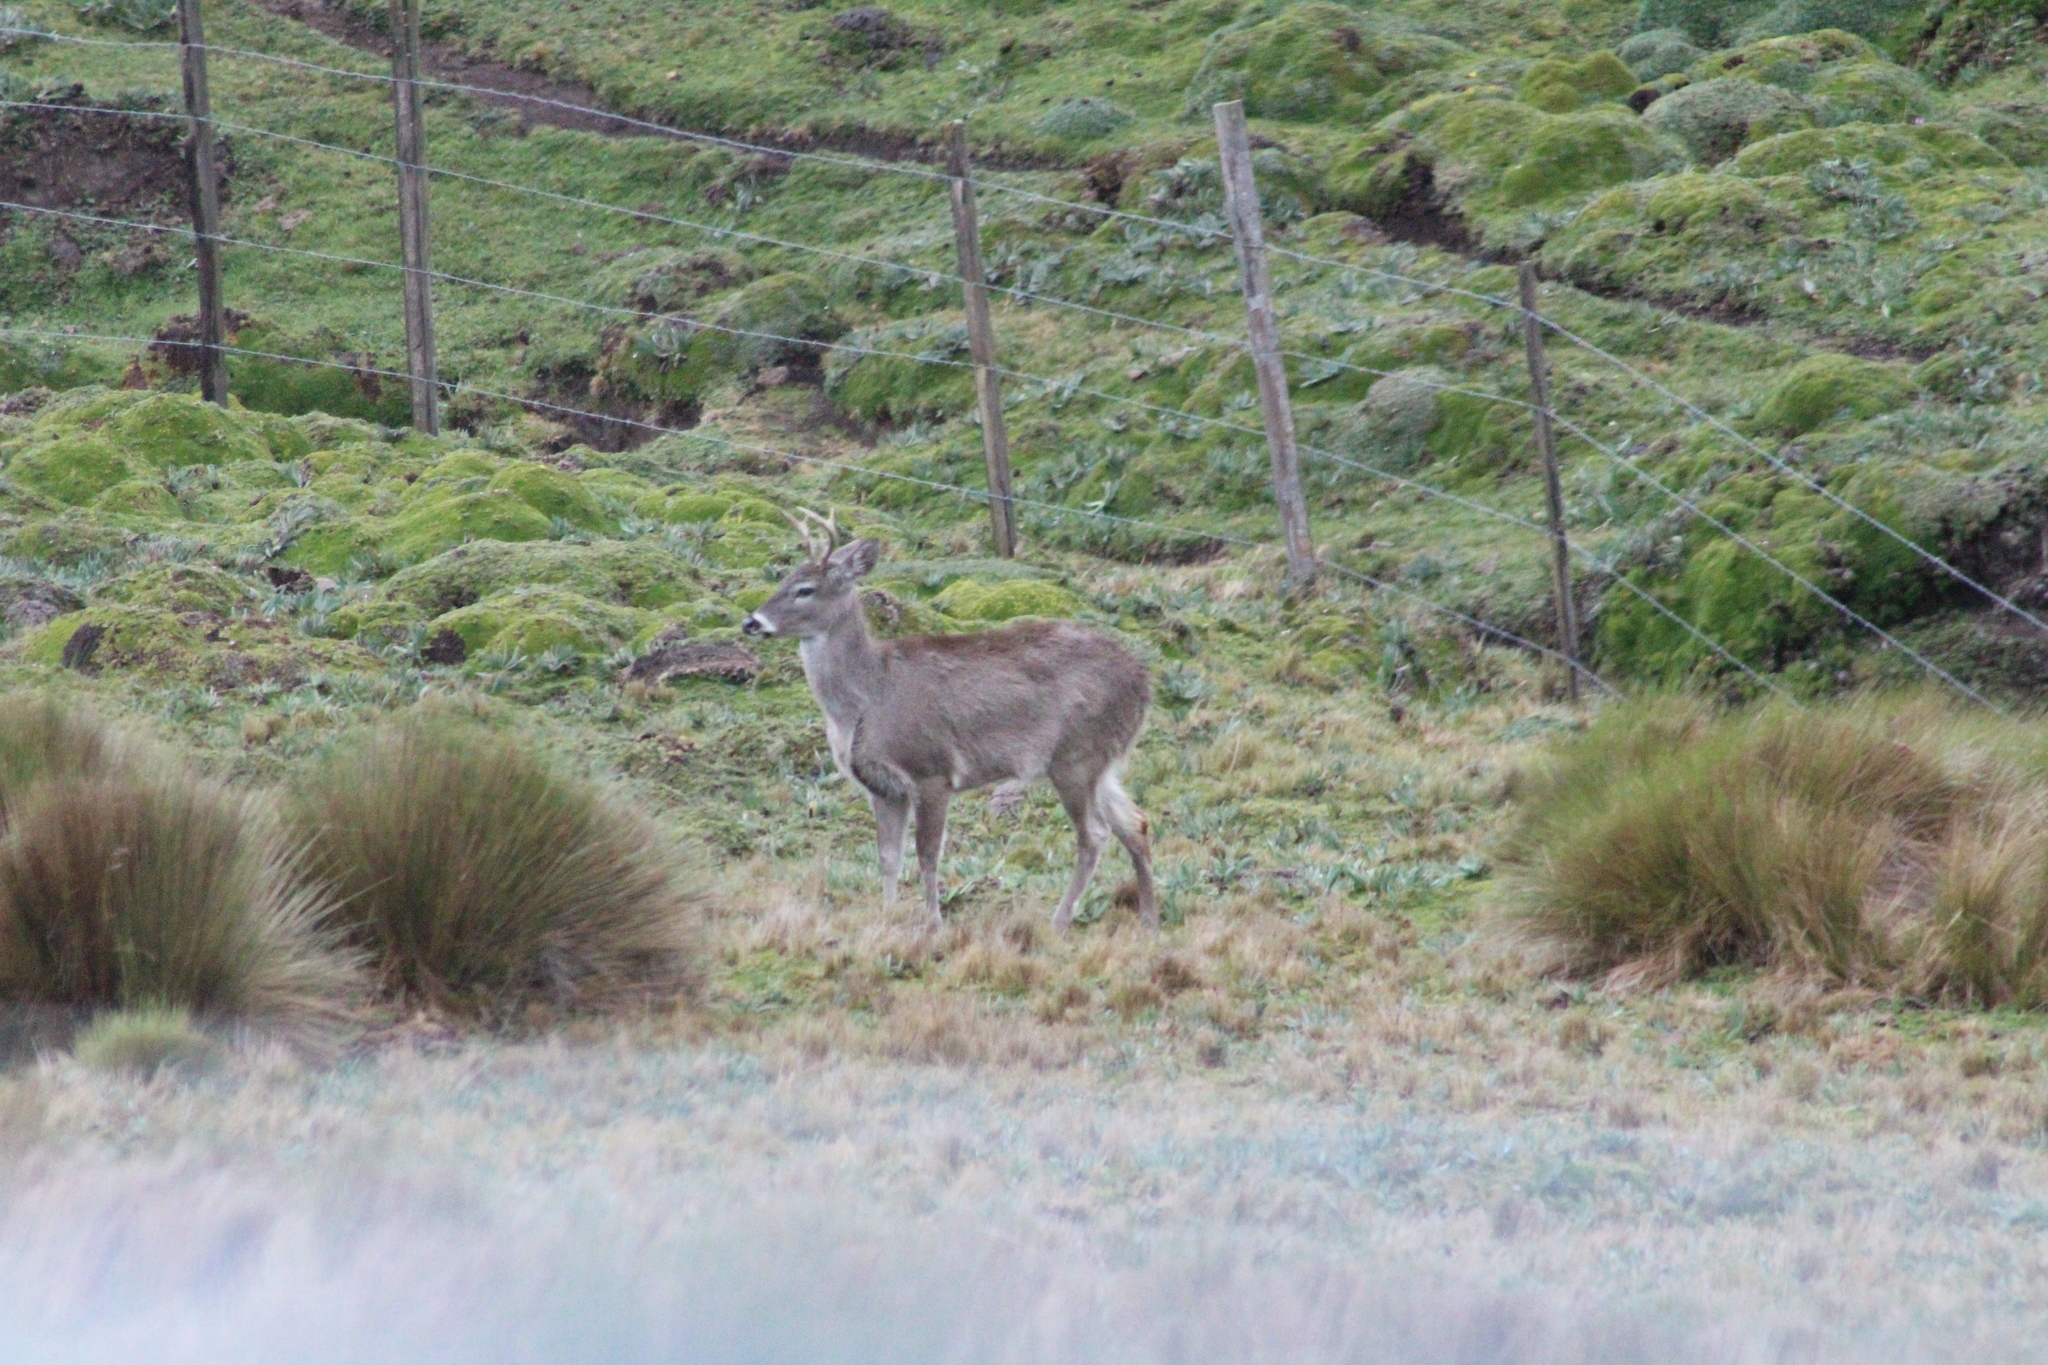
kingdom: Animalia
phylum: Chordata
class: Mammalia
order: Artiodactyla
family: Cervidae
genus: Odocoileus
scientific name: Odocoileus virginianus
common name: White-tailed deer
